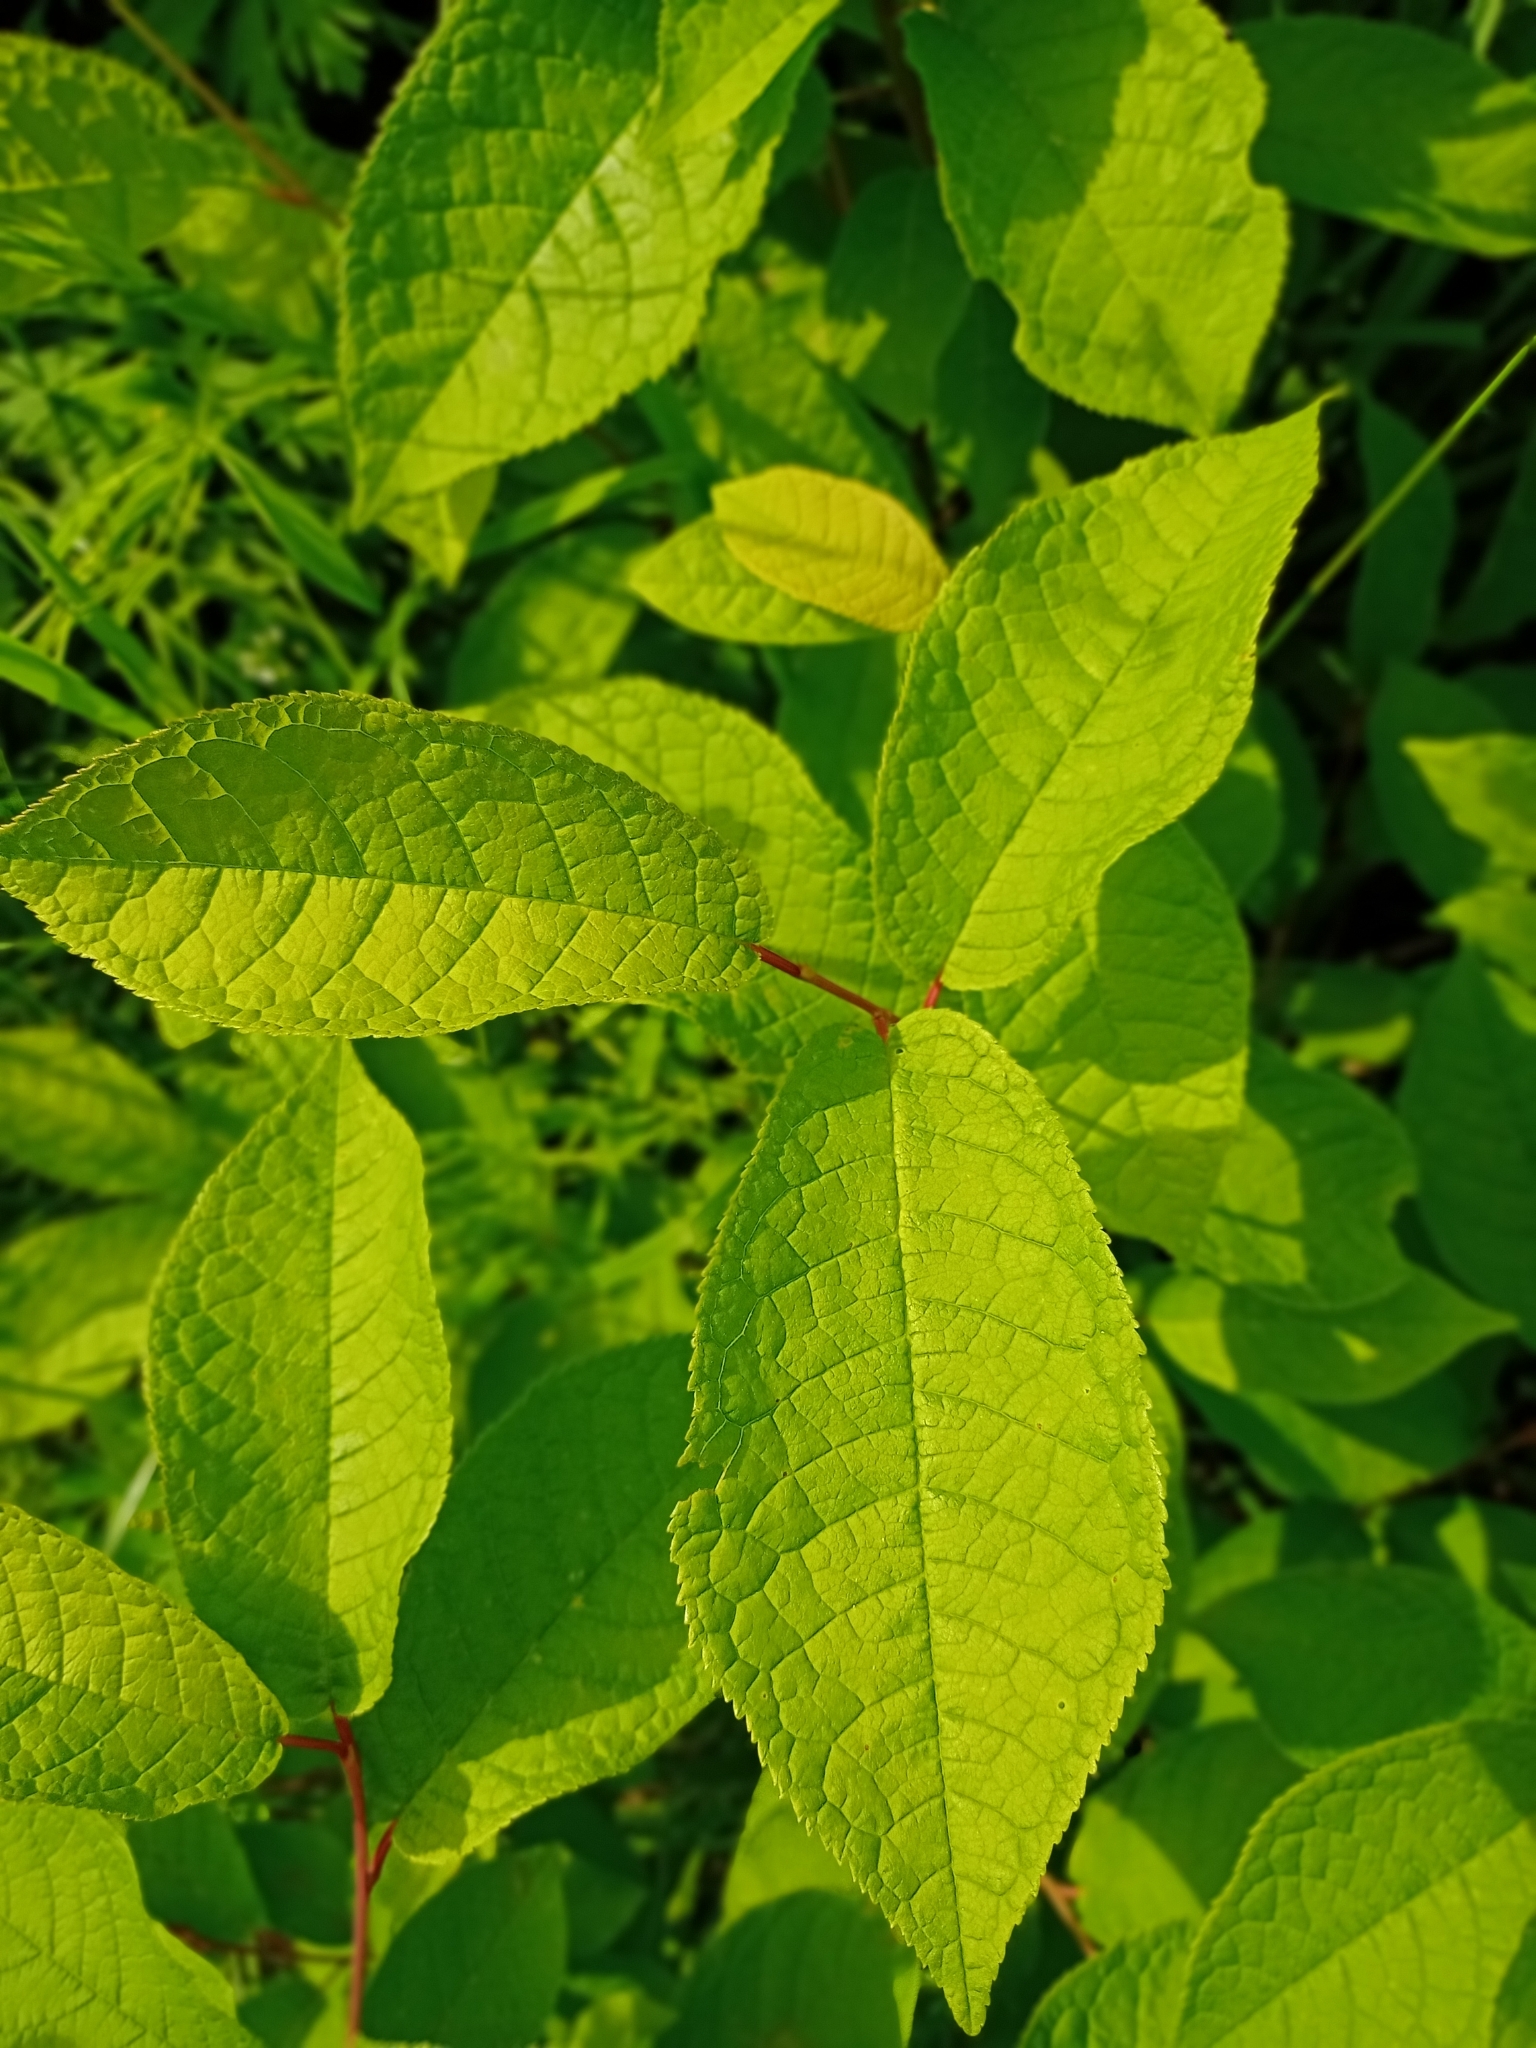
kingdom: Plantae
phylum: Tracheophyta
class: Magnoliopsida
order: Rosales
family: Rosaceae
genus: Prunus
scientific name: Prunus padus
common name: Bird cherry
